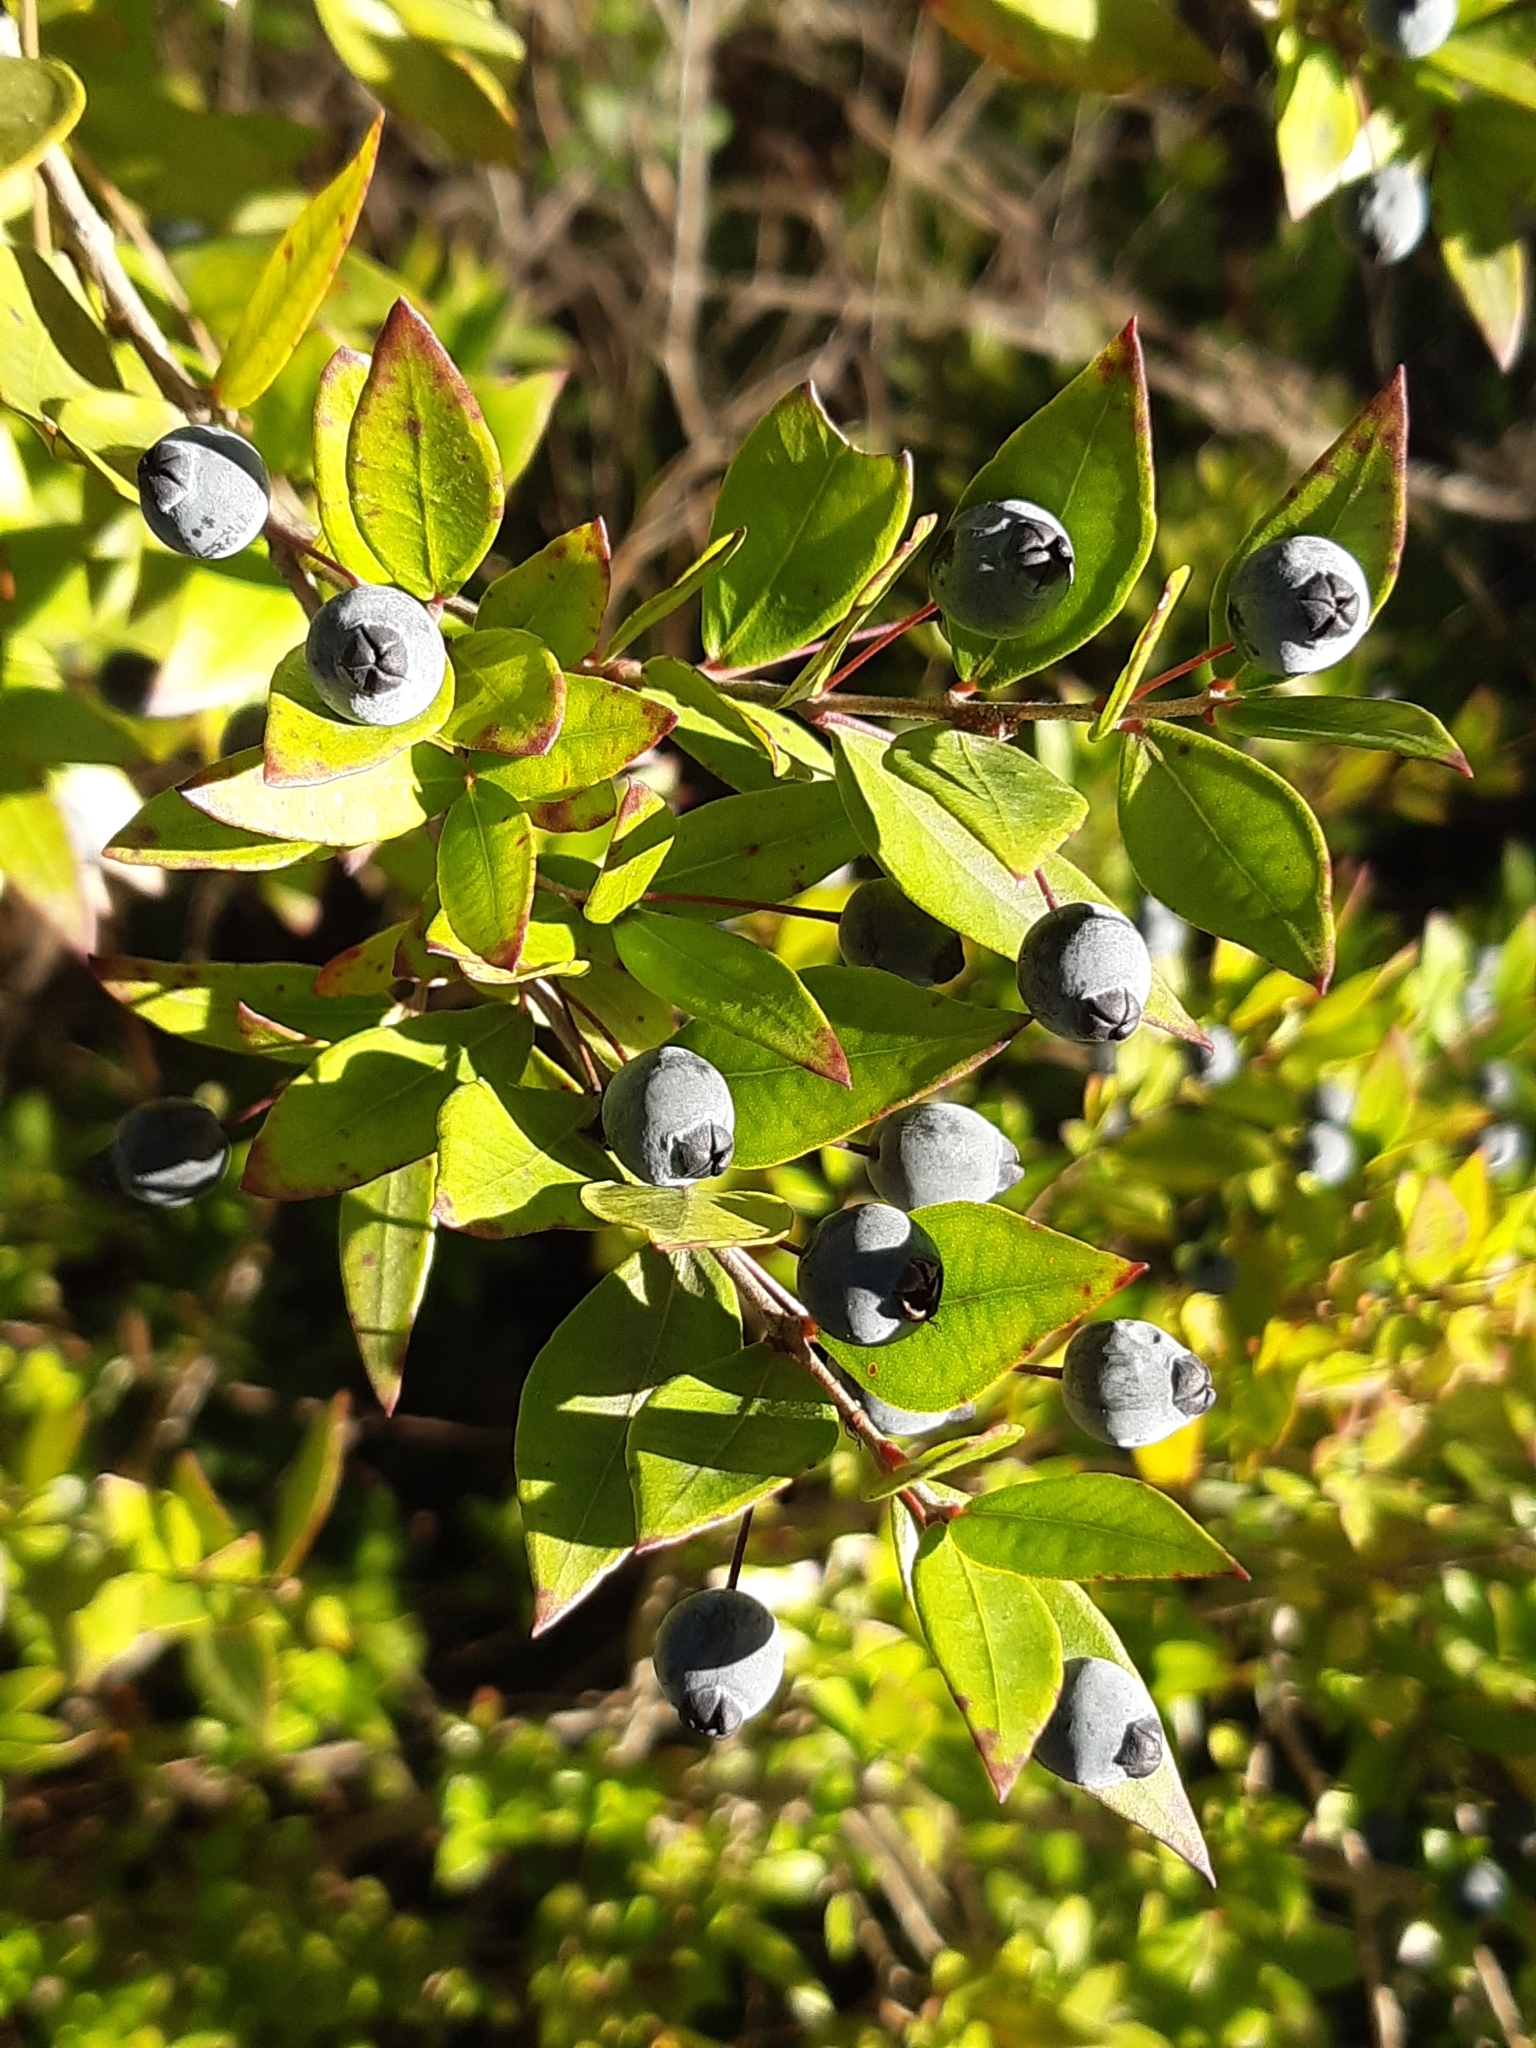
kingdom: Plantae
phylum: Tracheophyta
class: Magnoliopsida
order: Myrtales
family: Myrtaceae
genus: Myrtus
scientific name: Myrtus communis
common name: Myrtle
